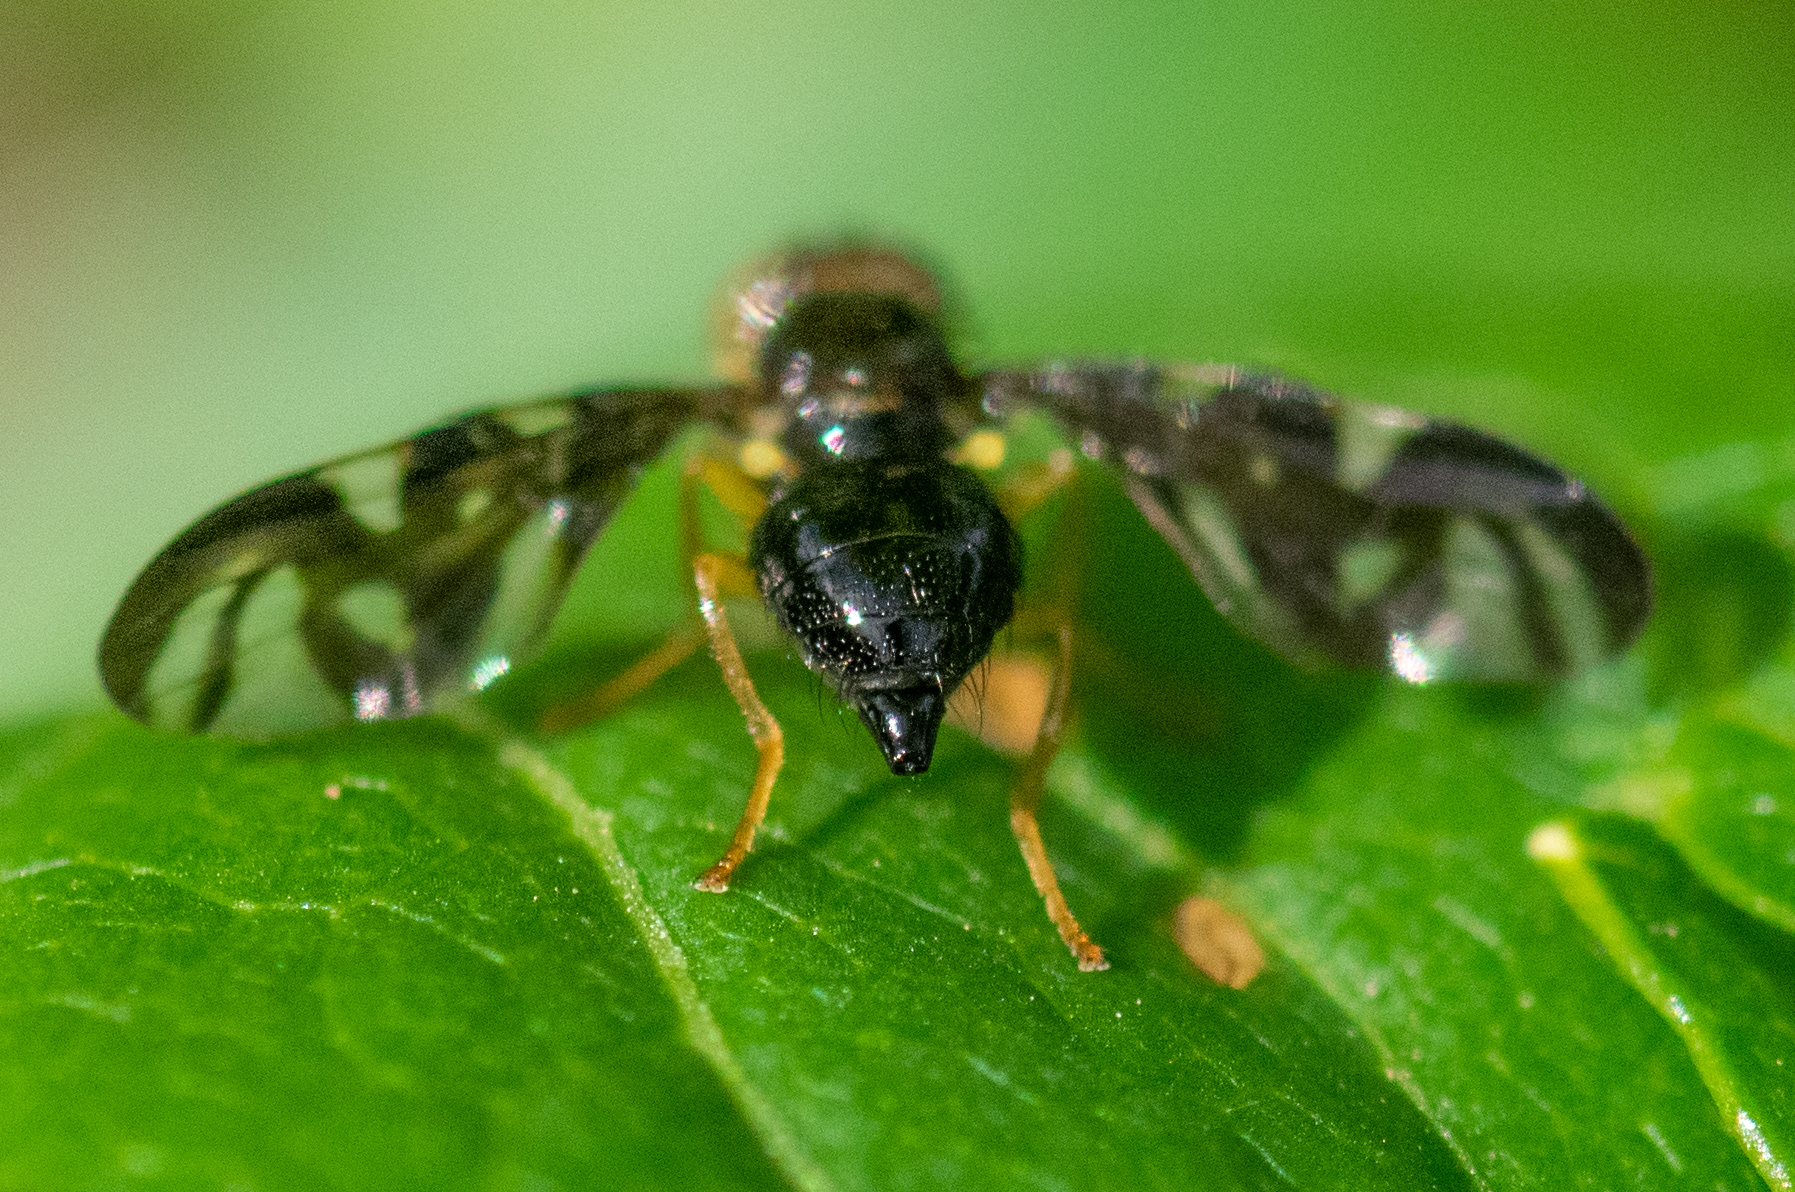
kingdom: Animalia
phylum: Arthropoda
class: Insecta
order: Diptera
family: Tephritidae
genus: Euleia
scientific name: Euleia heraclei
